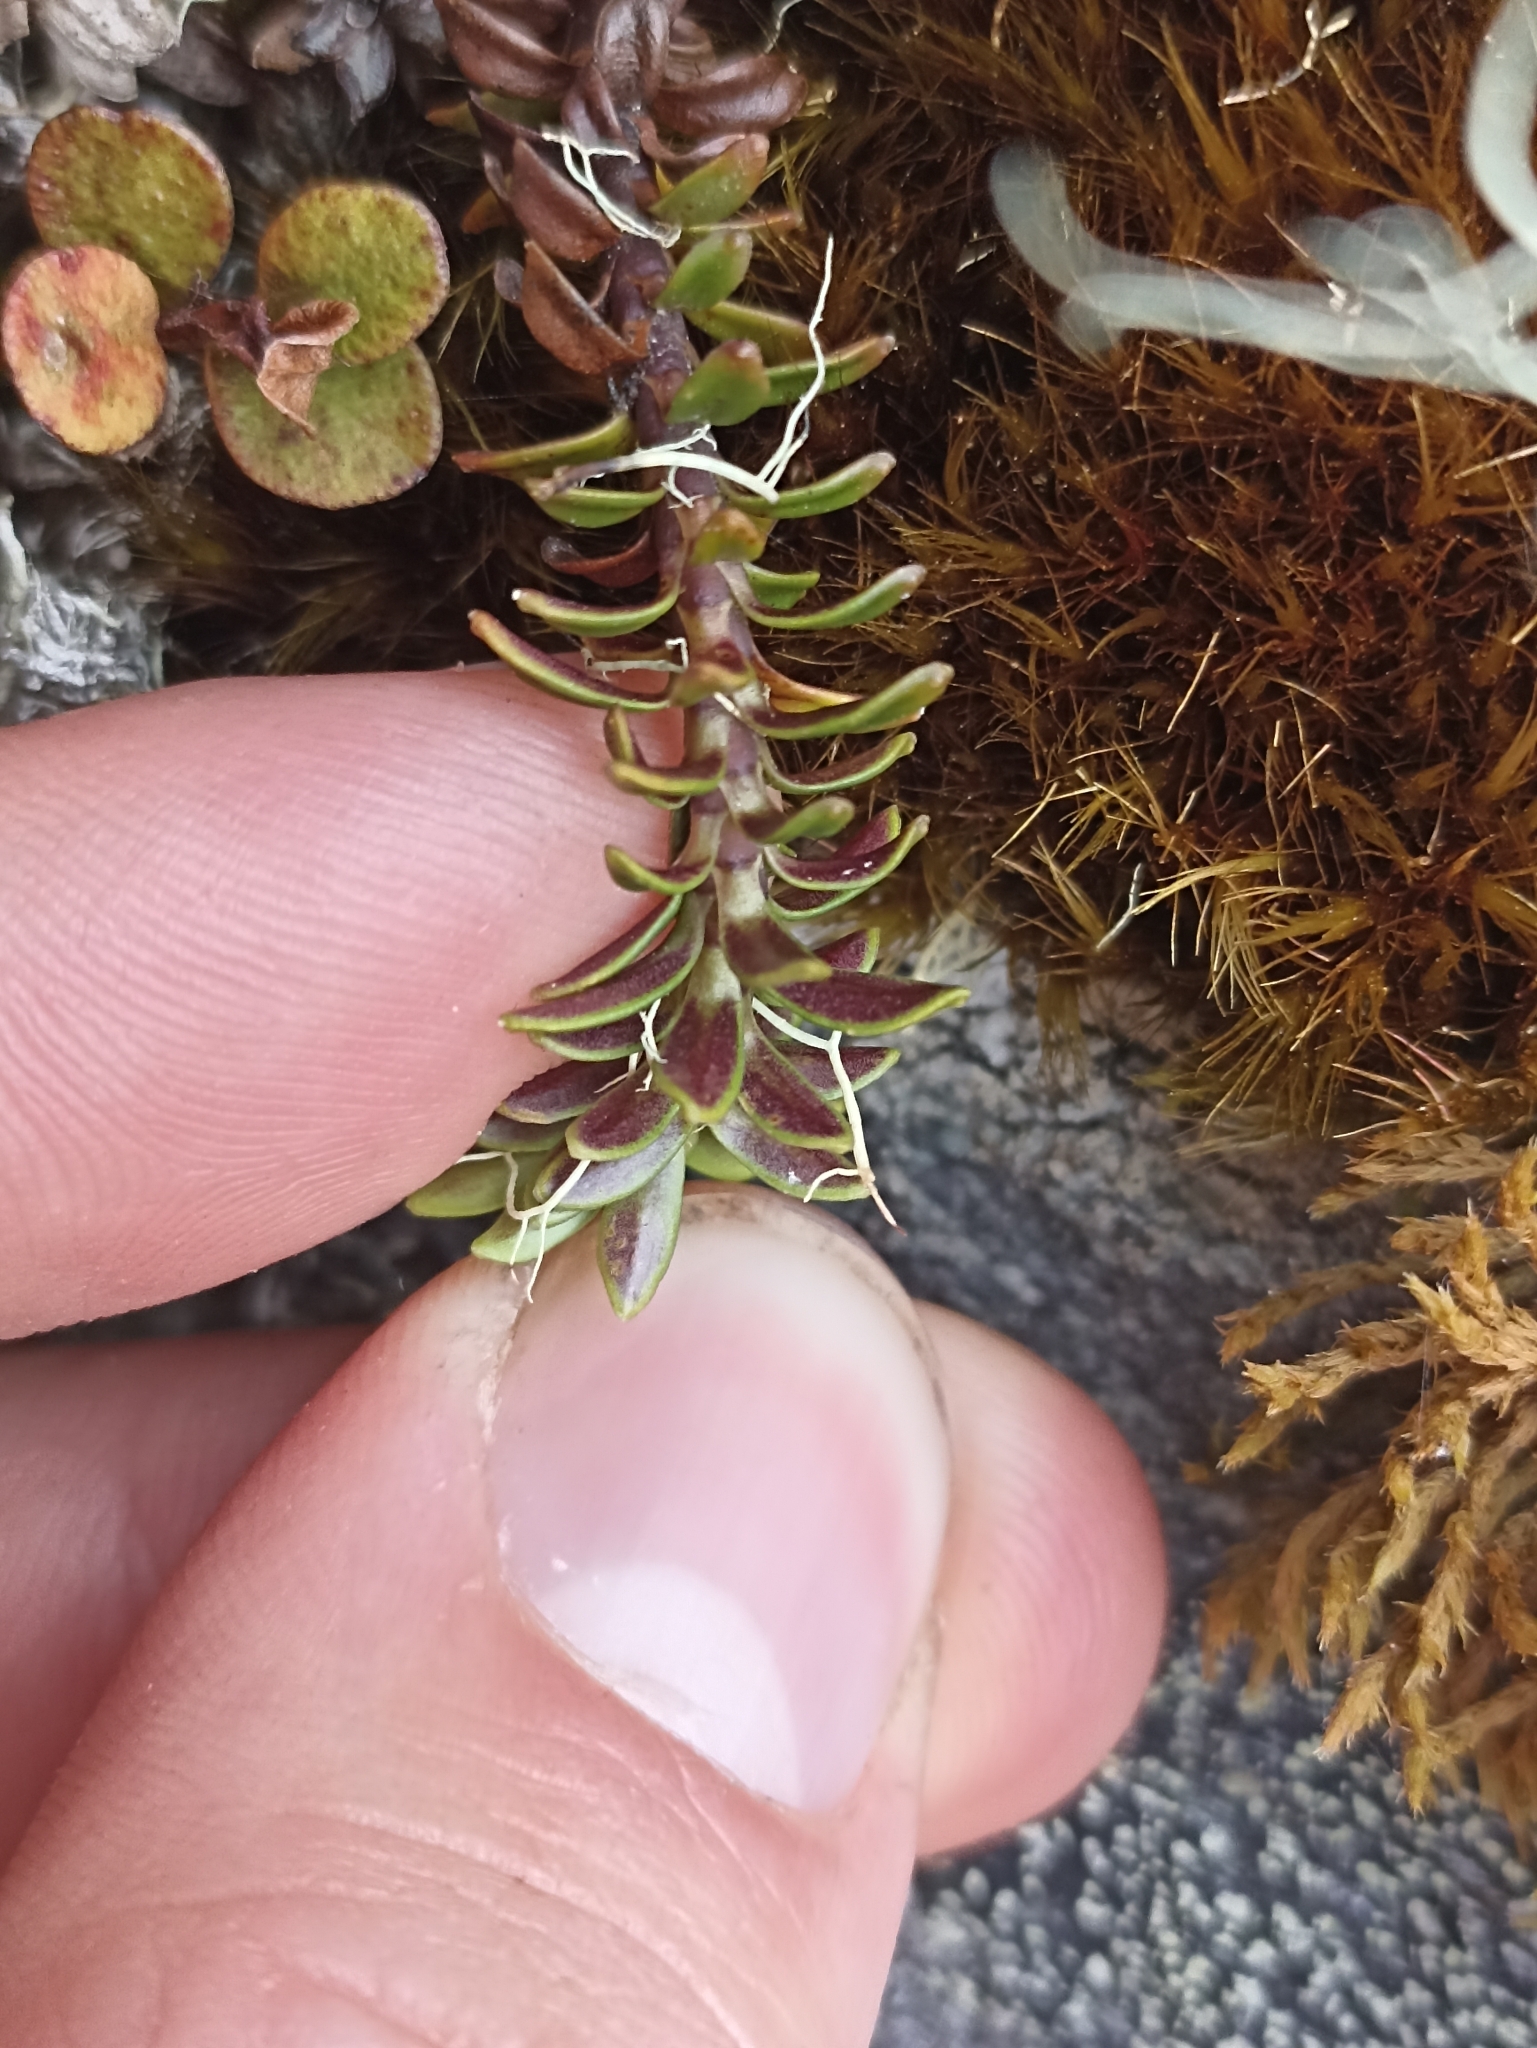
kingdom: Plantae
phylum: Tracheophyta
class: Magnoliopsida
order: Asterales
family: Stylidiaceae
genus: Forstera
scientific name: Forstera mackayi
